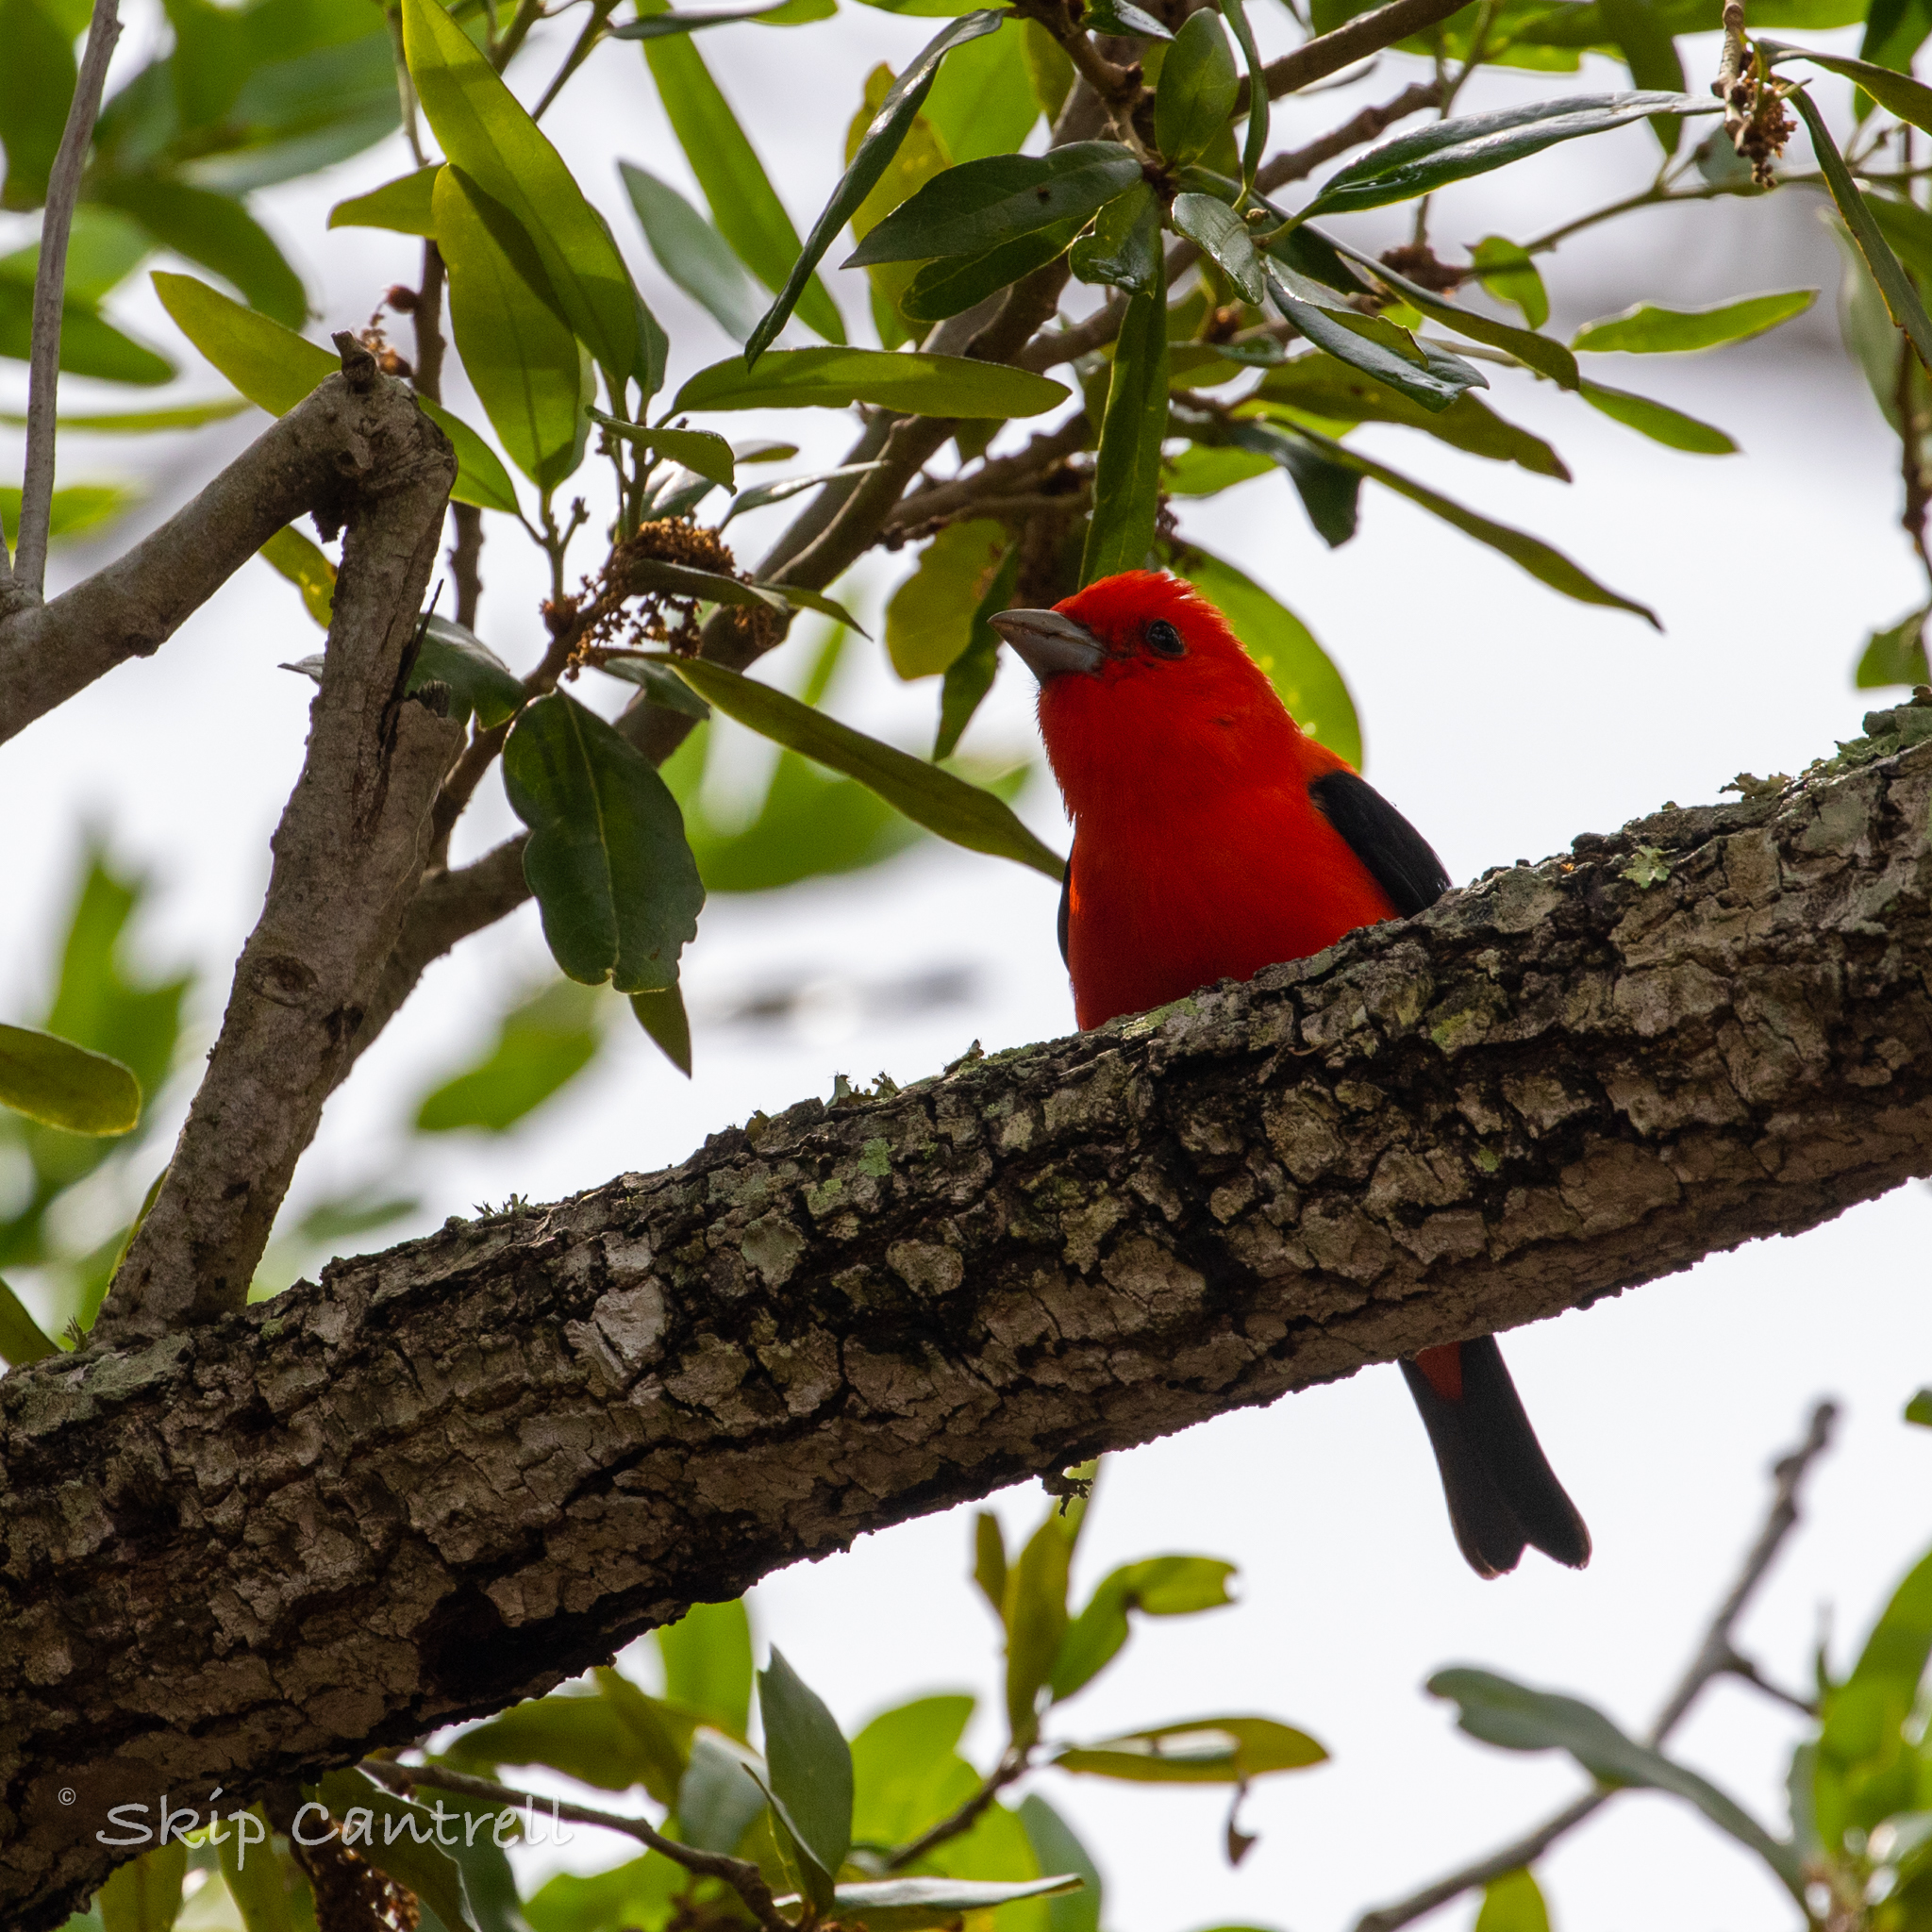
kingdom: Animalia
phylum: Chordata
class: Aves
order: Passeriformes
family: Cardinalidae
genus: Piranga
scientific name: Piranga olivacea
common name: Scarlet tanager
